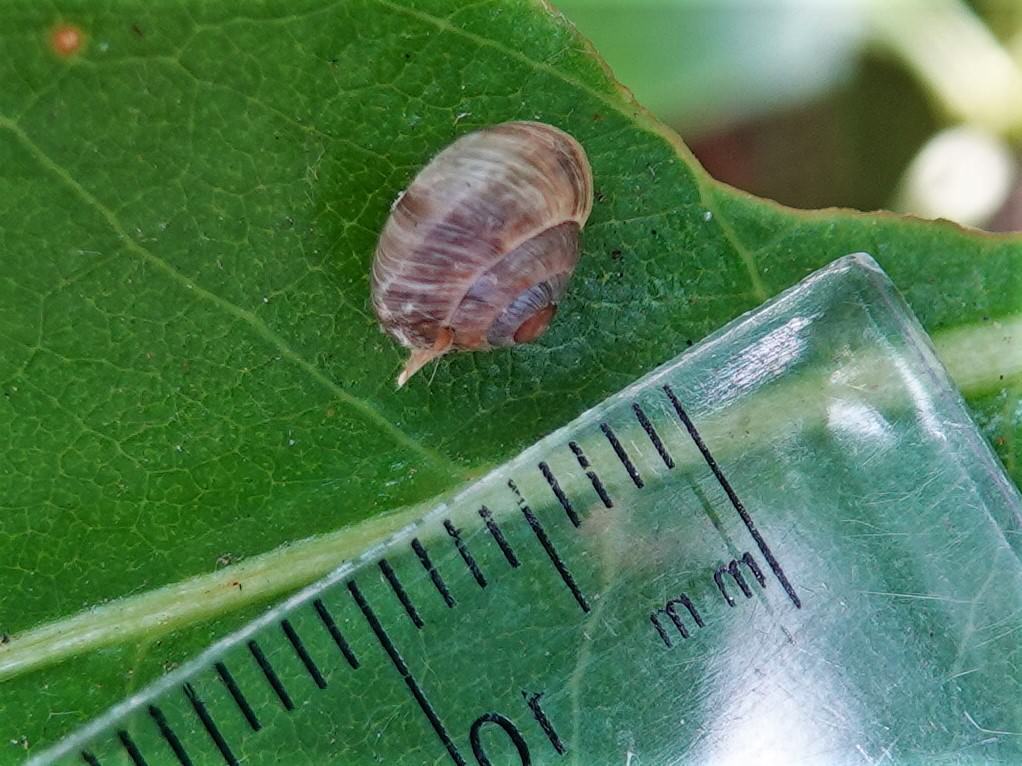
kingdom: Animalia
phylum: Mollusca
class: Gastropoda
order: Stylommatophora
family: Charopidae
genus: Serpho
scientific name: Serpho
